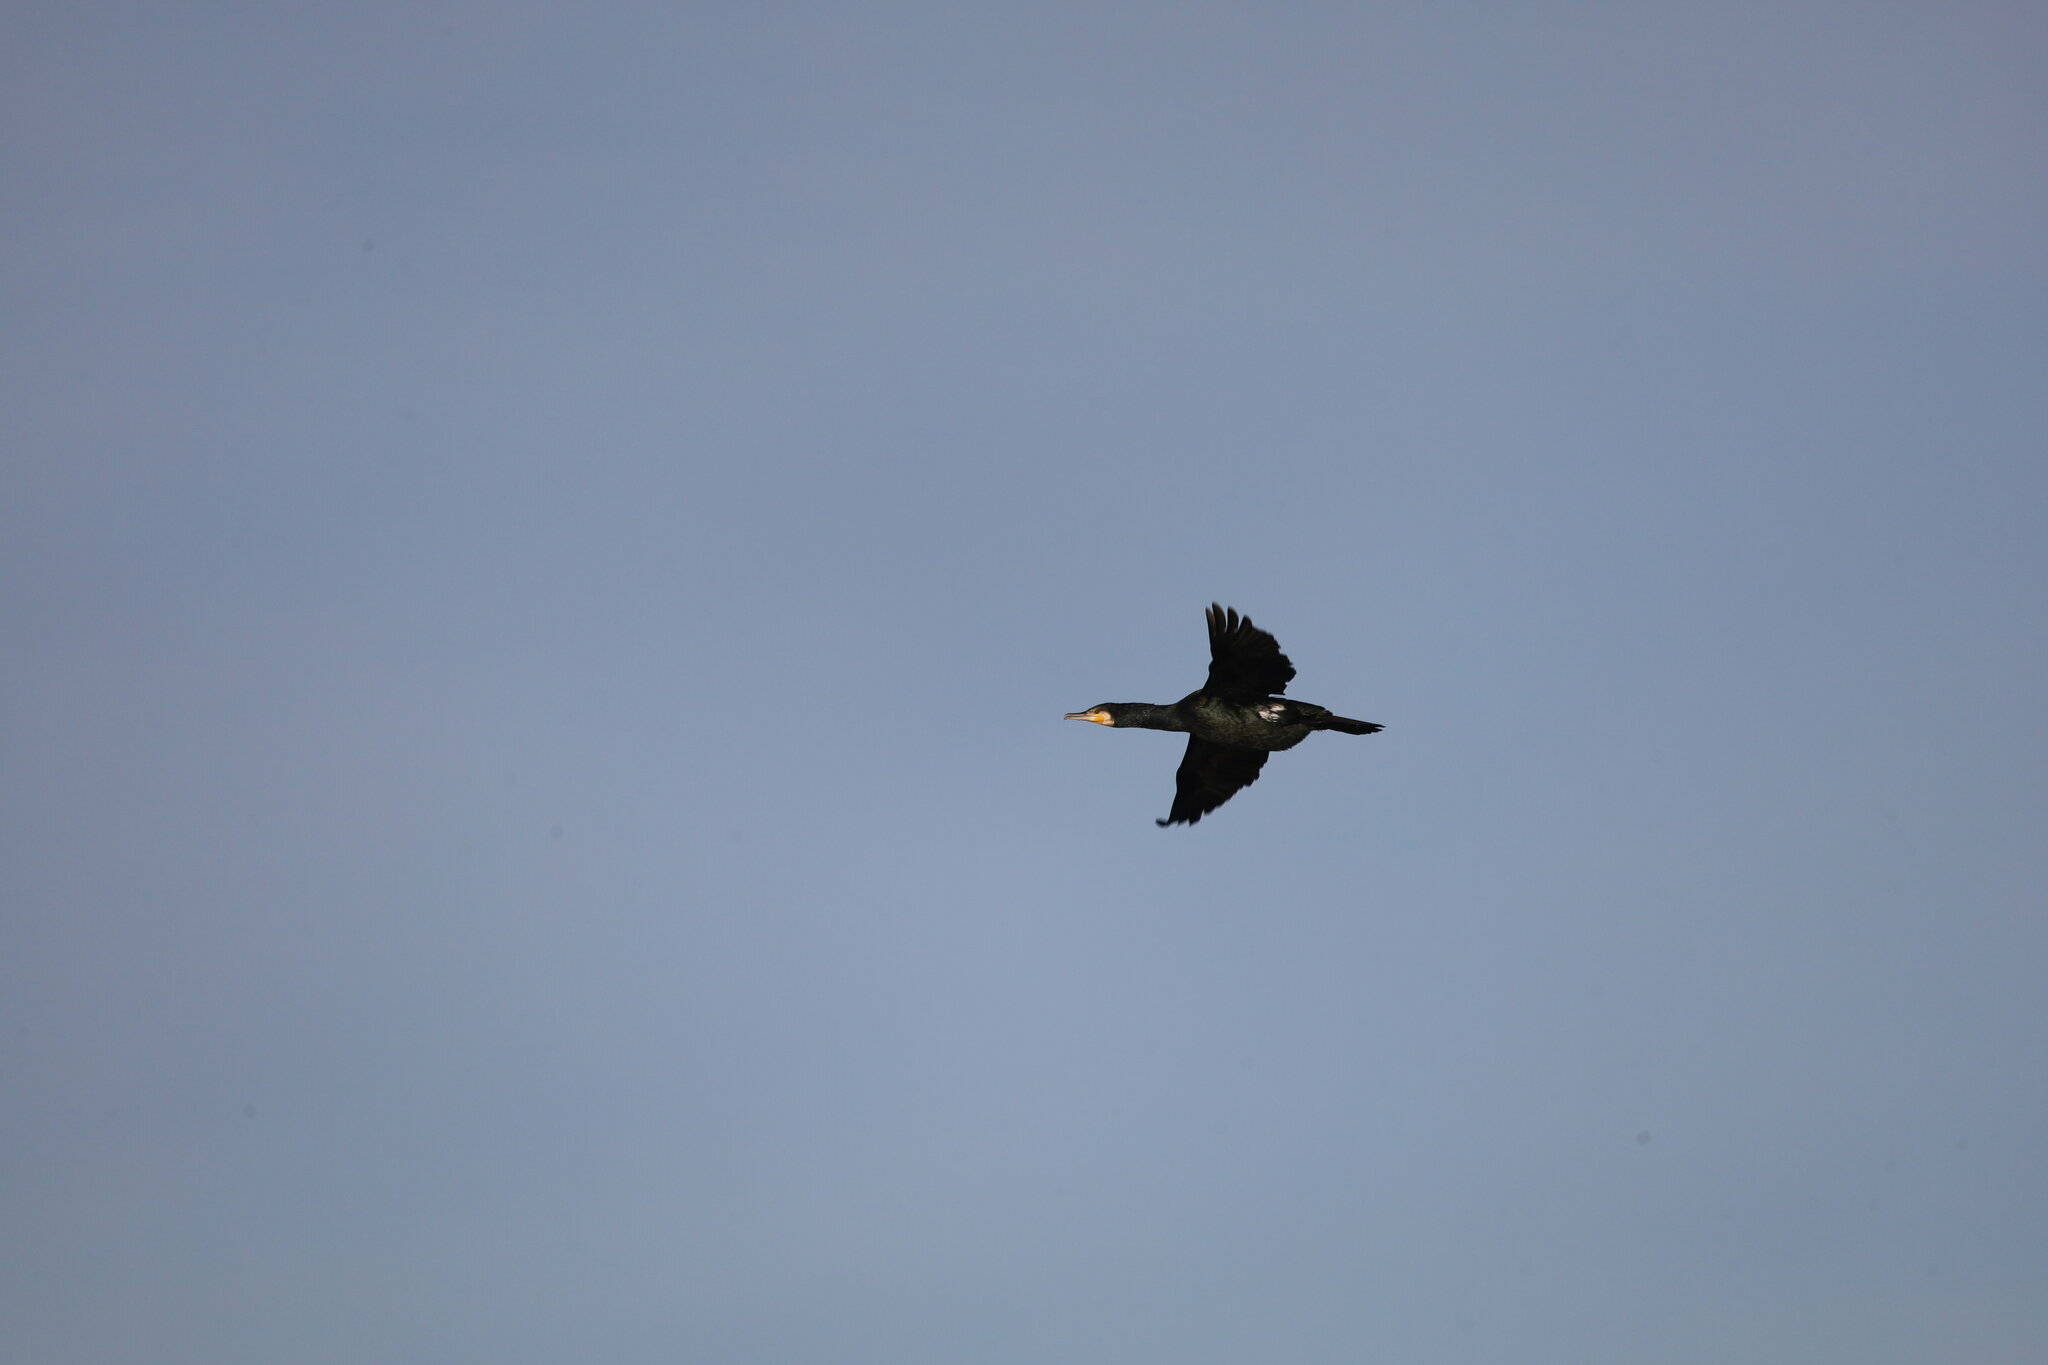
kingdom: Animalia
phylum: Chordata
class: Aves
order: Suliformes
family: Phalacrocoracidae
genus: Phalacrocorax
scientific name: Phalacrocorax carbo
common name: Great cormorant
